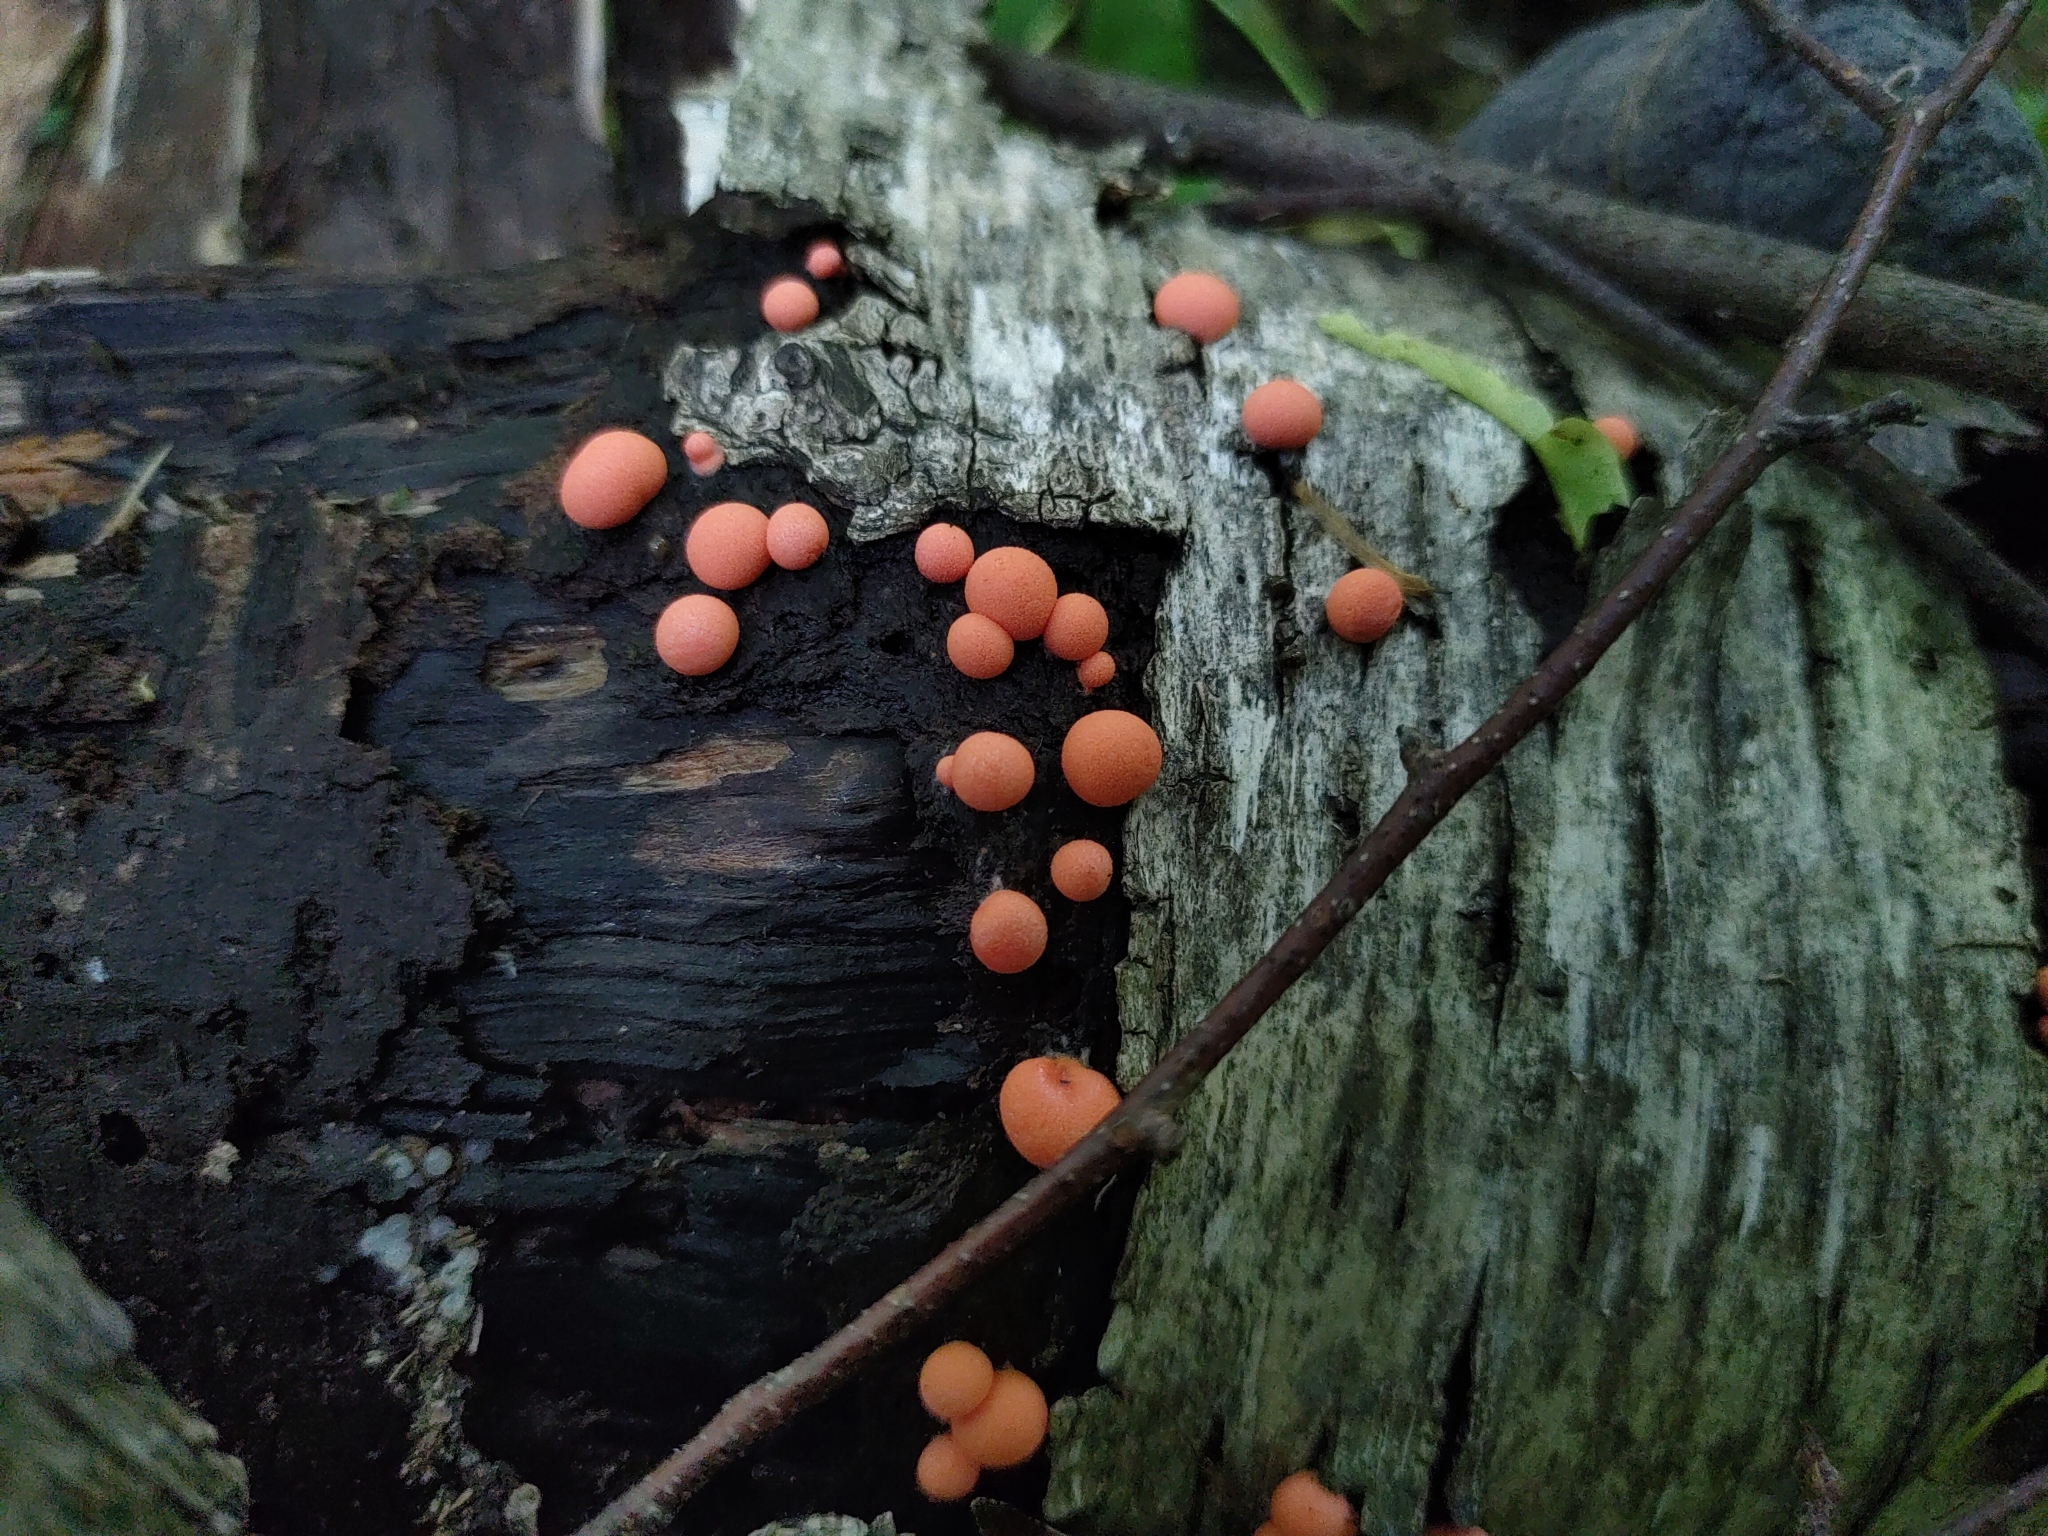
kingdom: Protozoa
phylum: Mycetozoa
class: Myxomycetes
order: Cribrariales
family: Tubiferaceae
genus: Lycogala
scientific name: Lycogala epidendrum
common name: Wolf's milk
